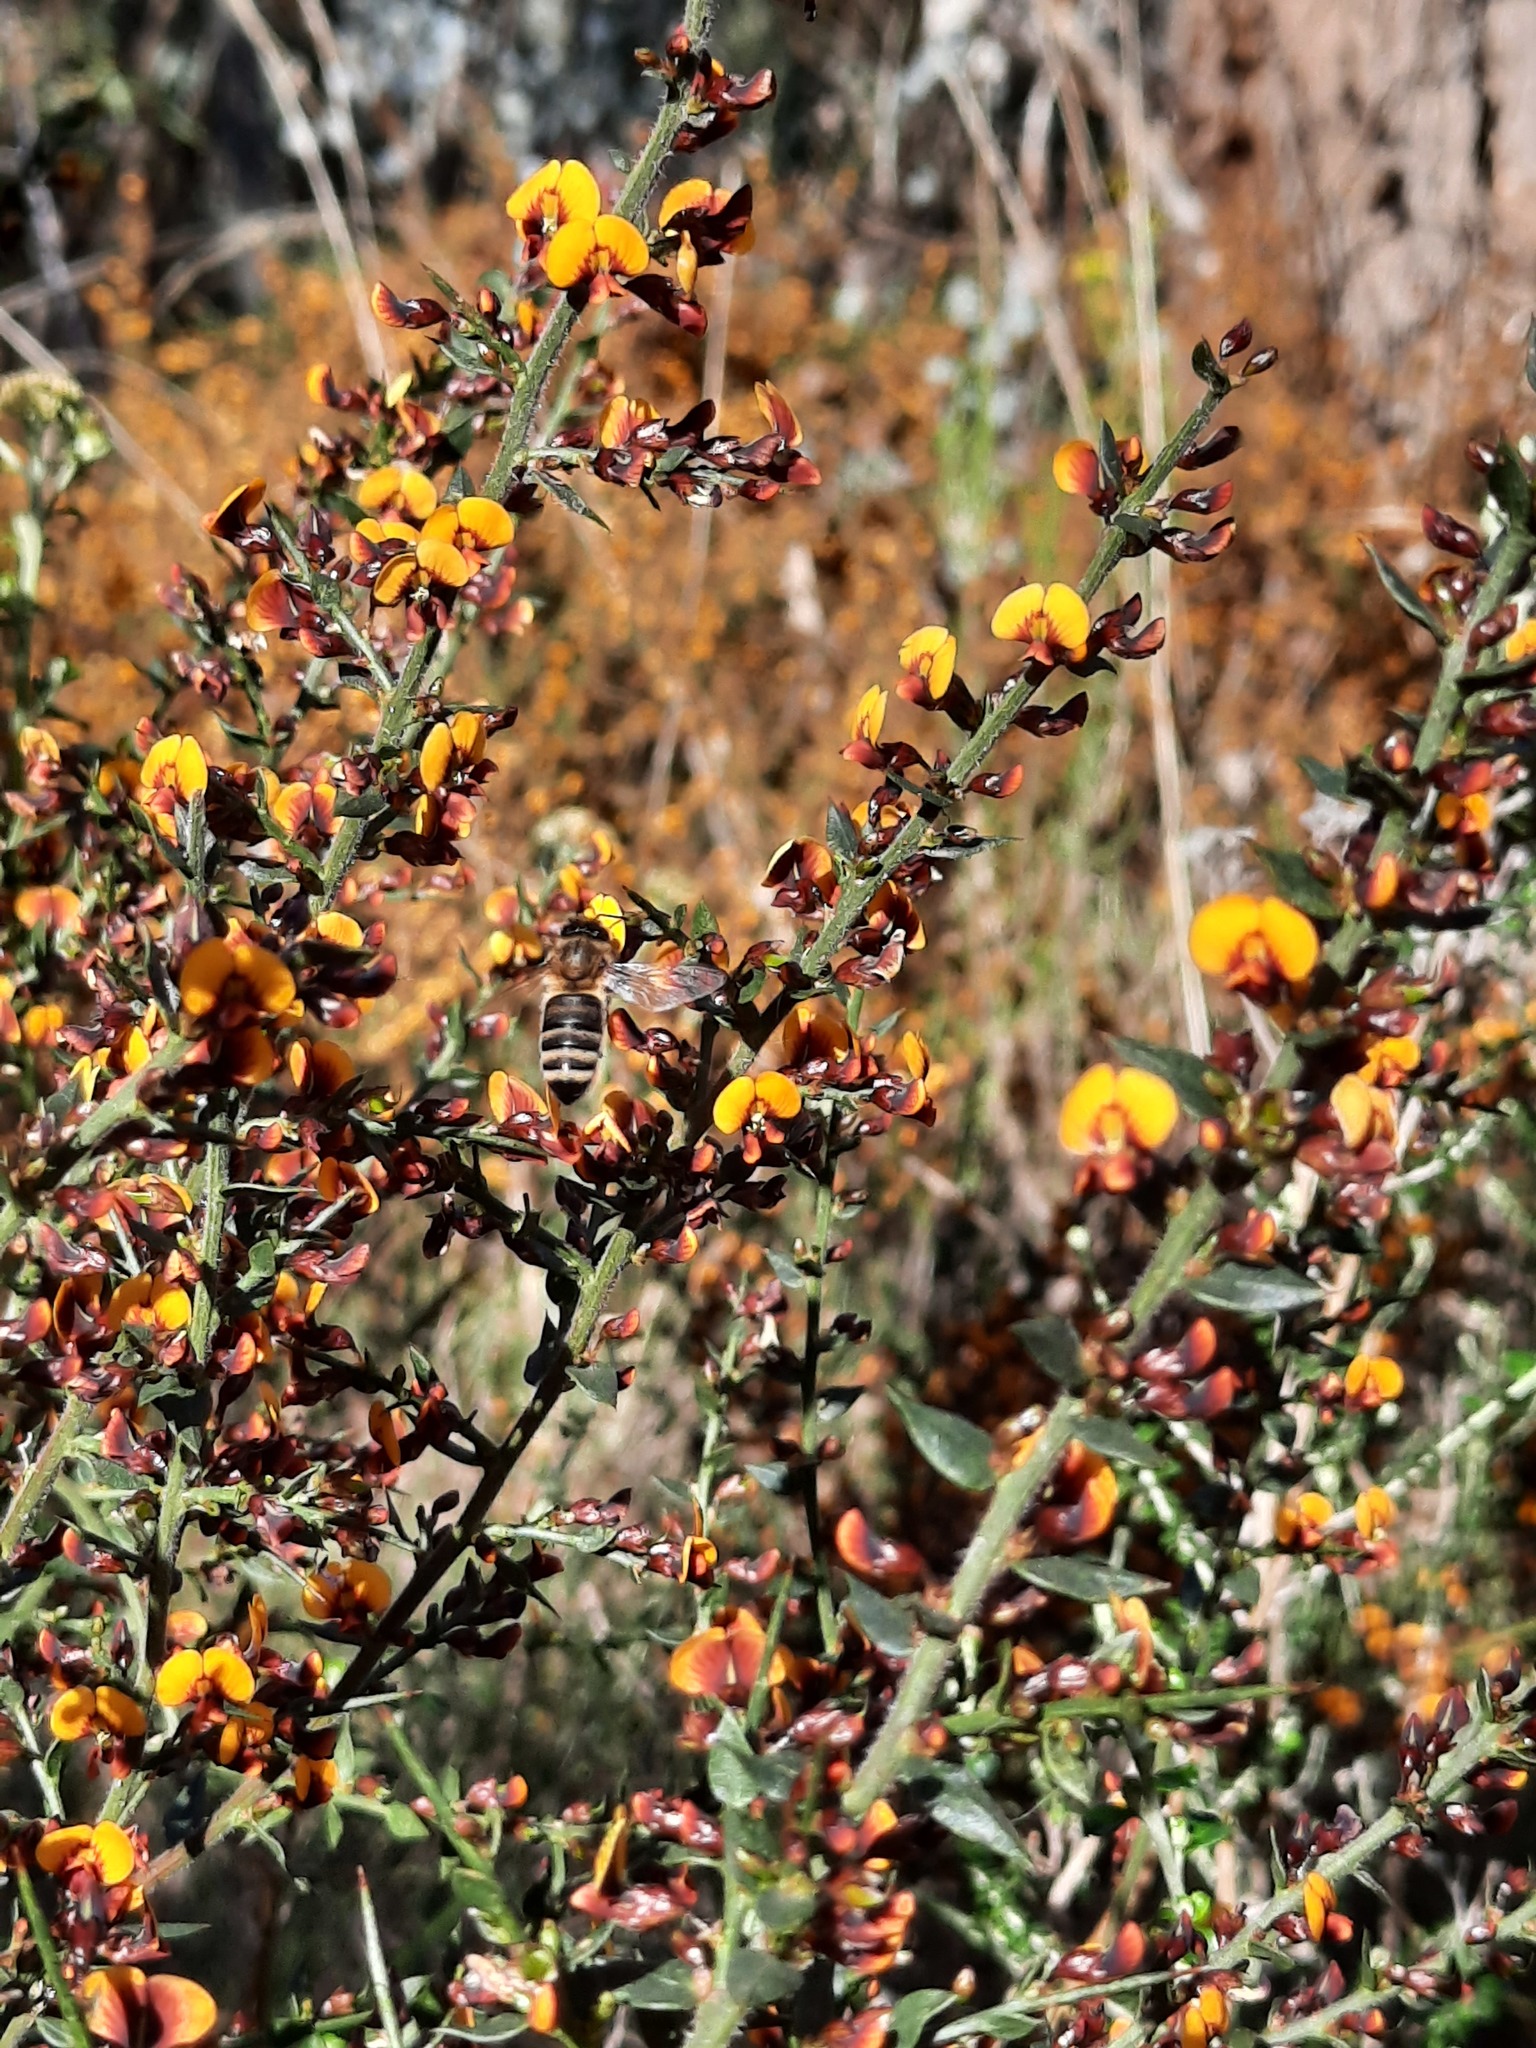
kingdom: Animalia
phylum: Arthropoda
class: Insecta
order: Hymenoptera
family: Apidae
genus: Apis
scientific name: Apis mellifera
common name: Honey bee
